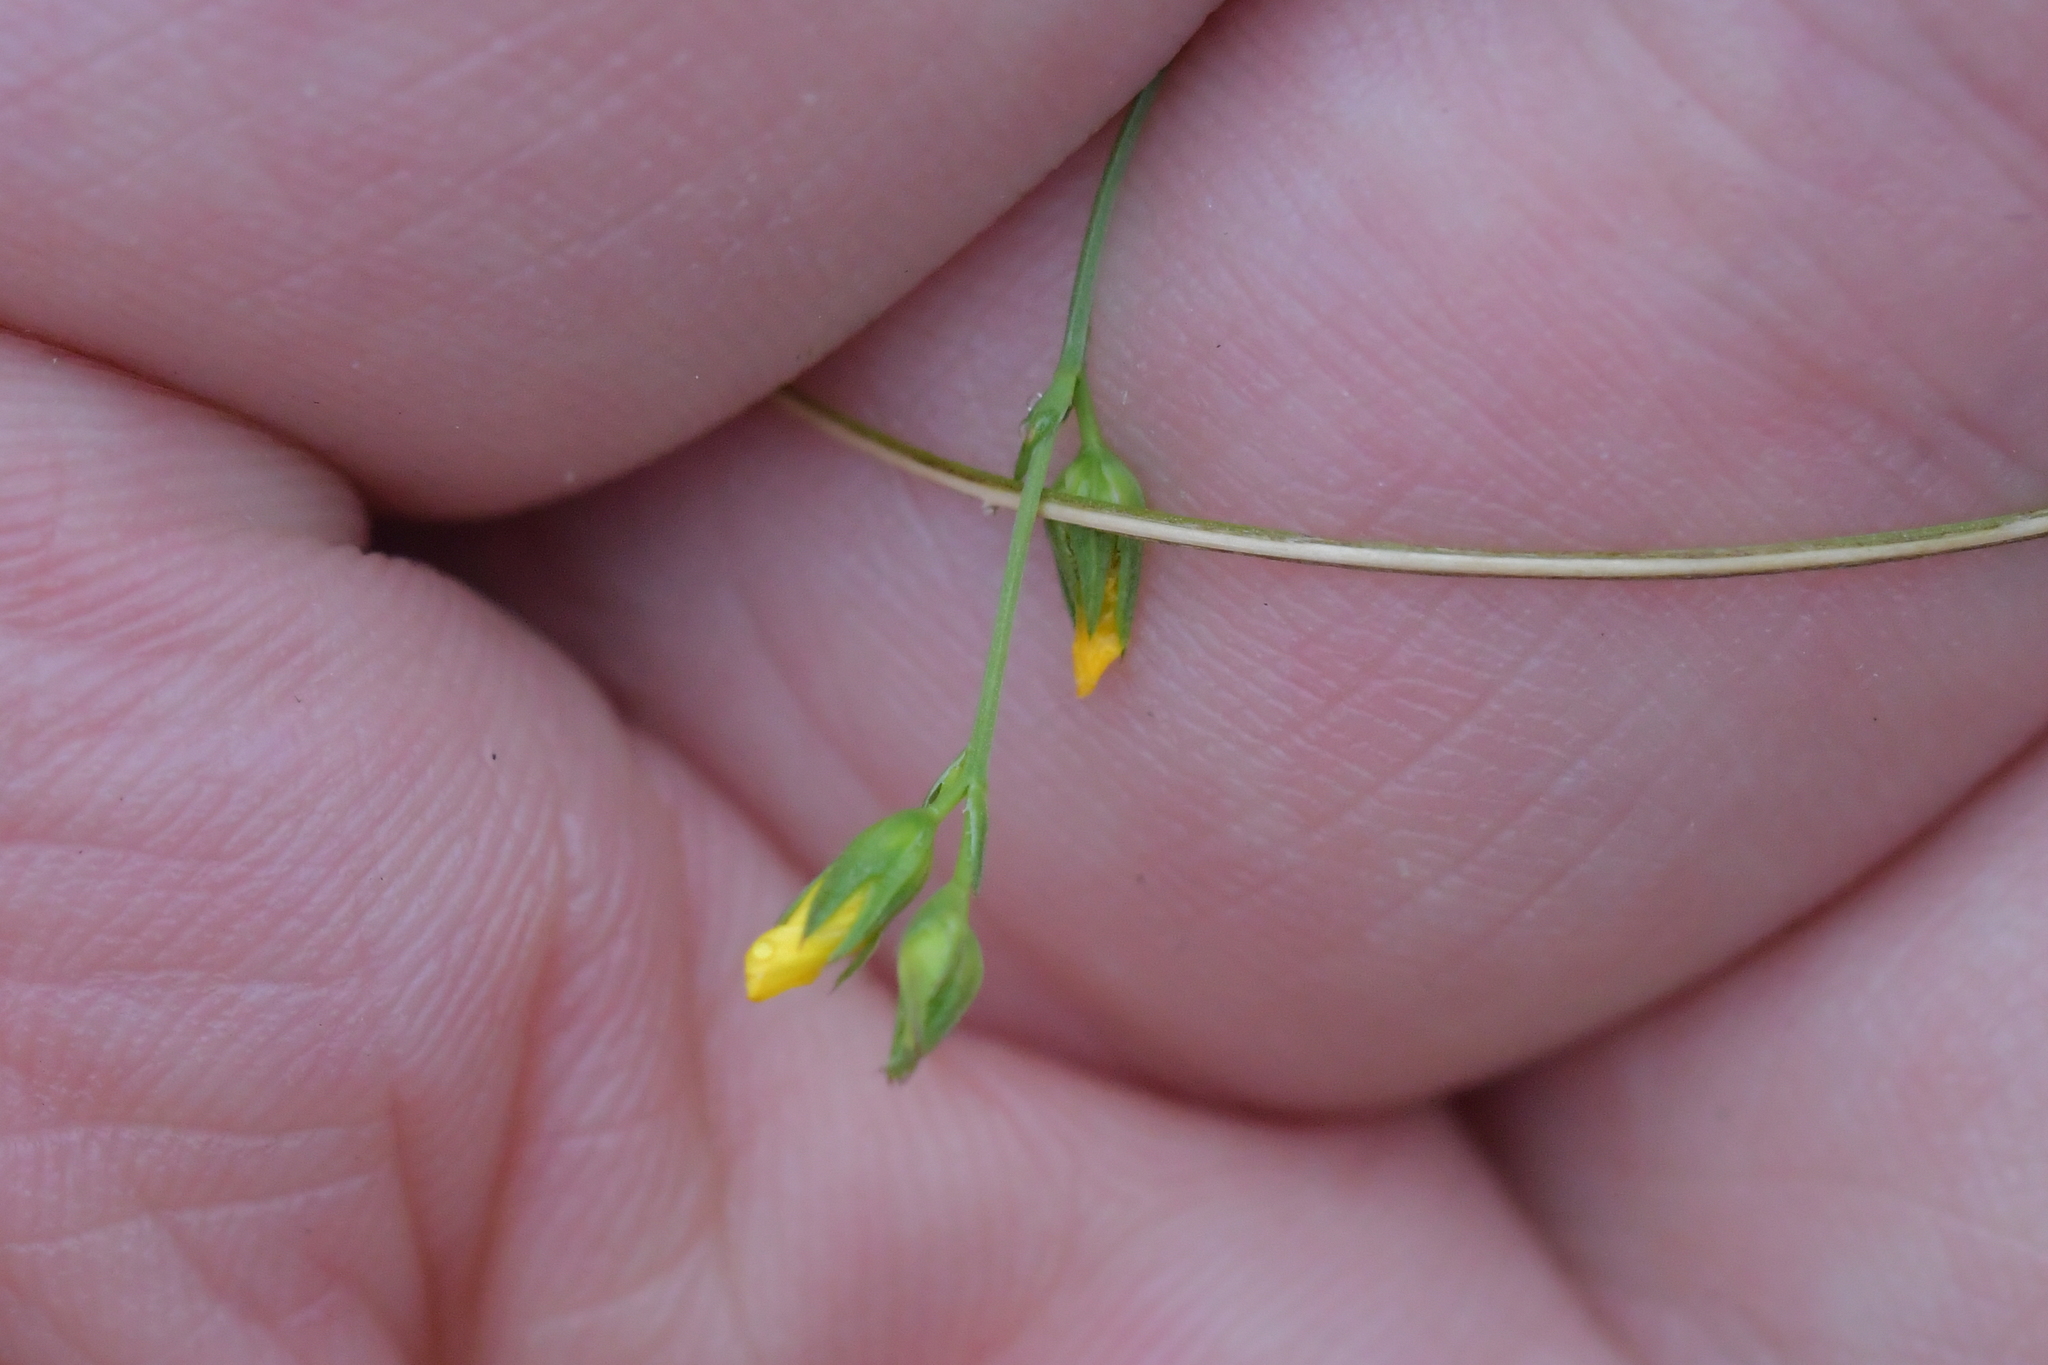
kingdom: Plantae
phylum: Tracheophyta
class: Magnoliopsida
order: Malpighiales
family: Linaceae
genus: Linum
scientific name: Linum trigynum
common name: French flax
